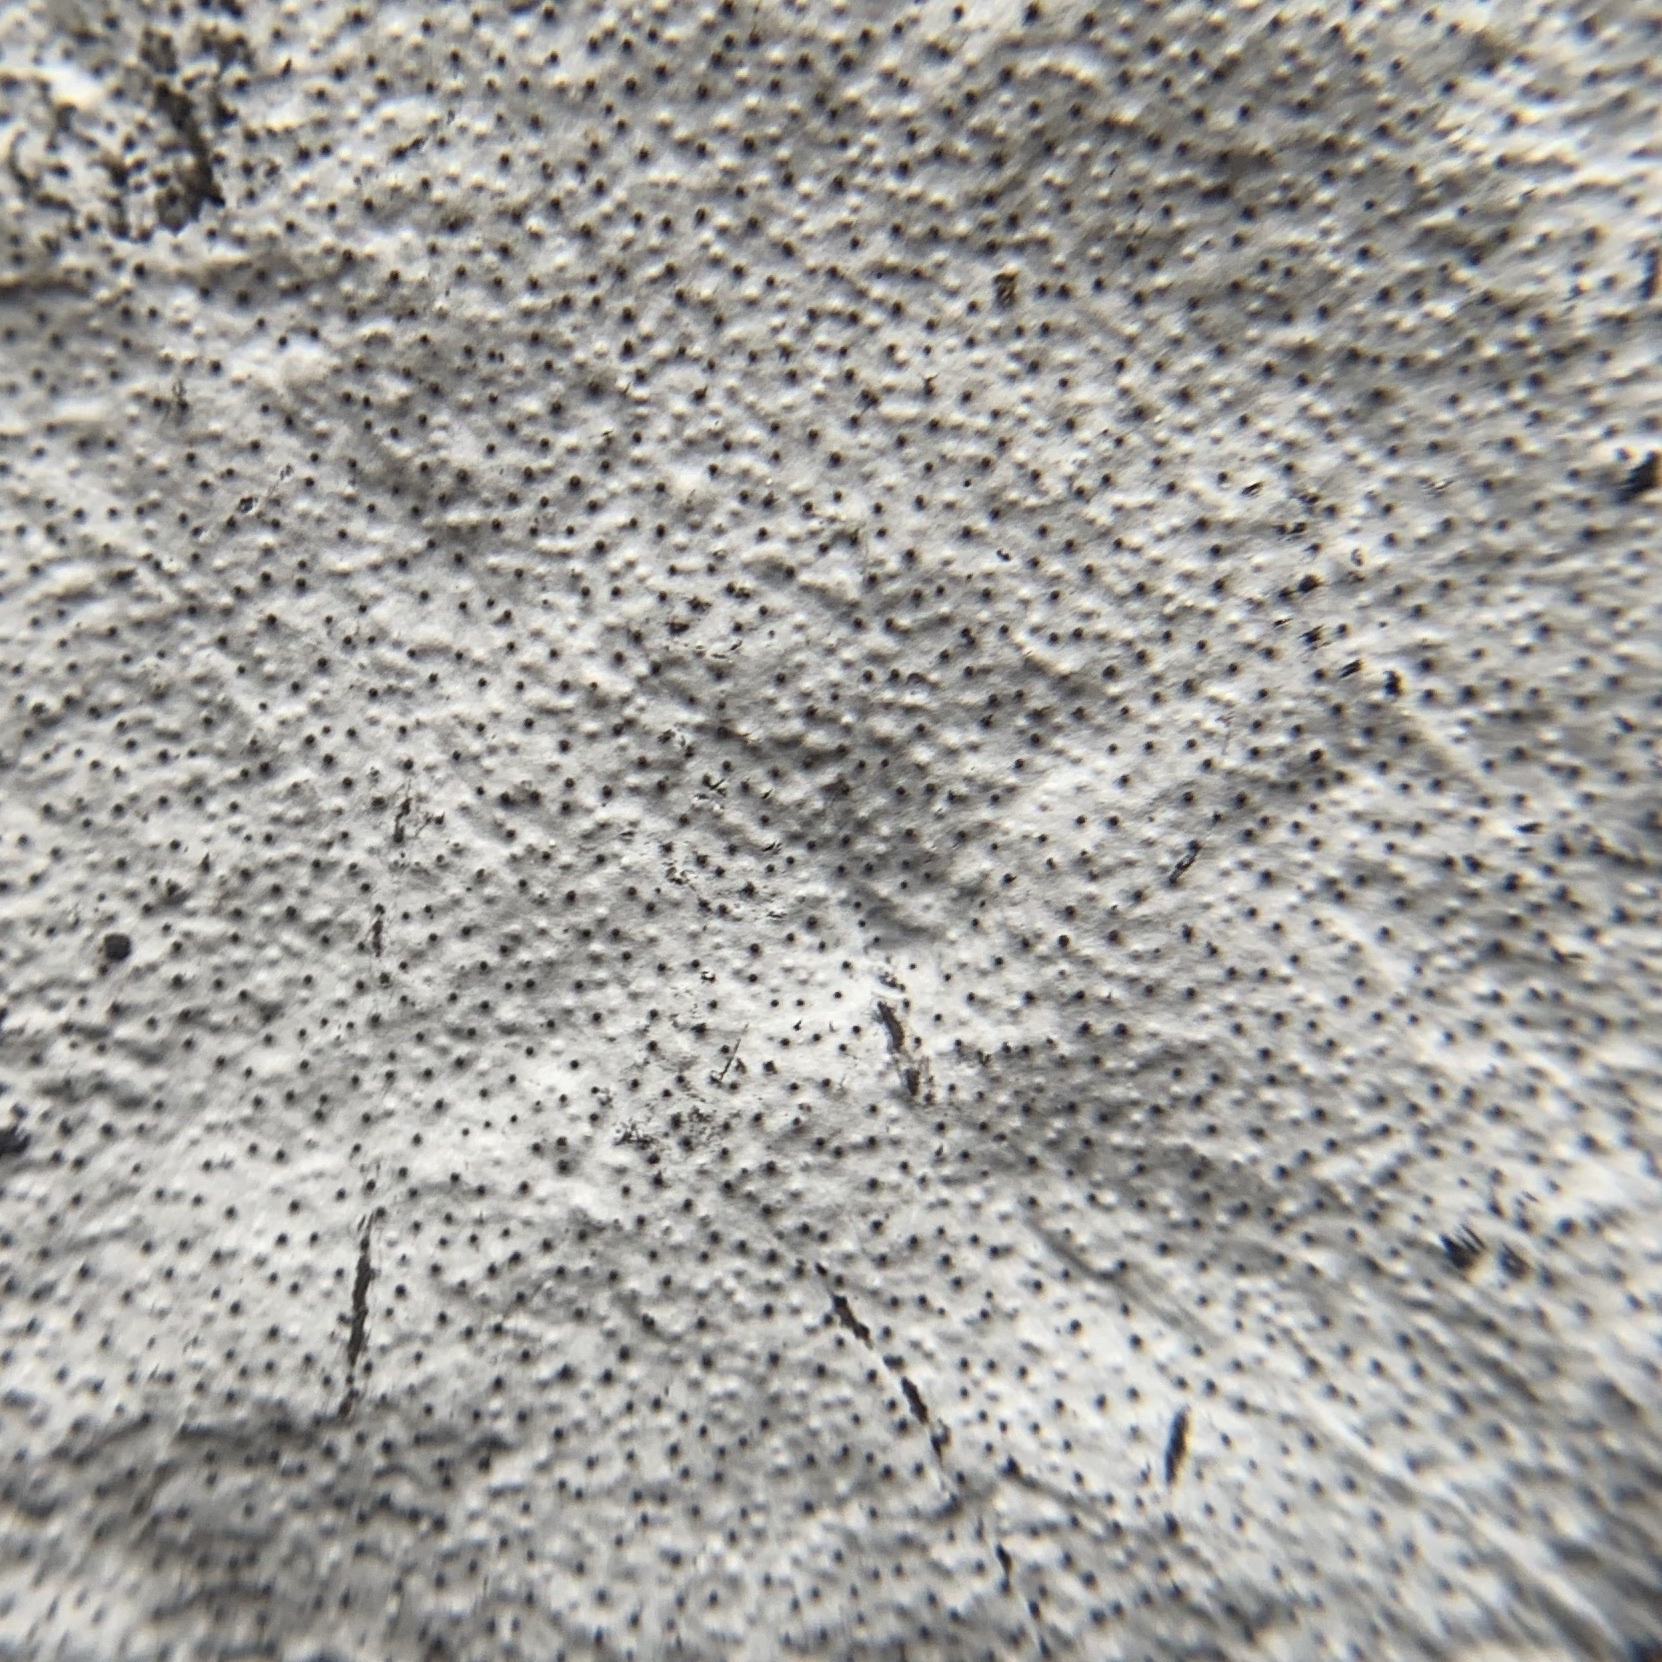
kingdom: Fungi
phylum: Ascomycota
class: Sordariomycetes
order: Xylariales
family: Graphostromataceae
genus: Biscogniauxia
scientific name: Biscogniauxia atropunctata
